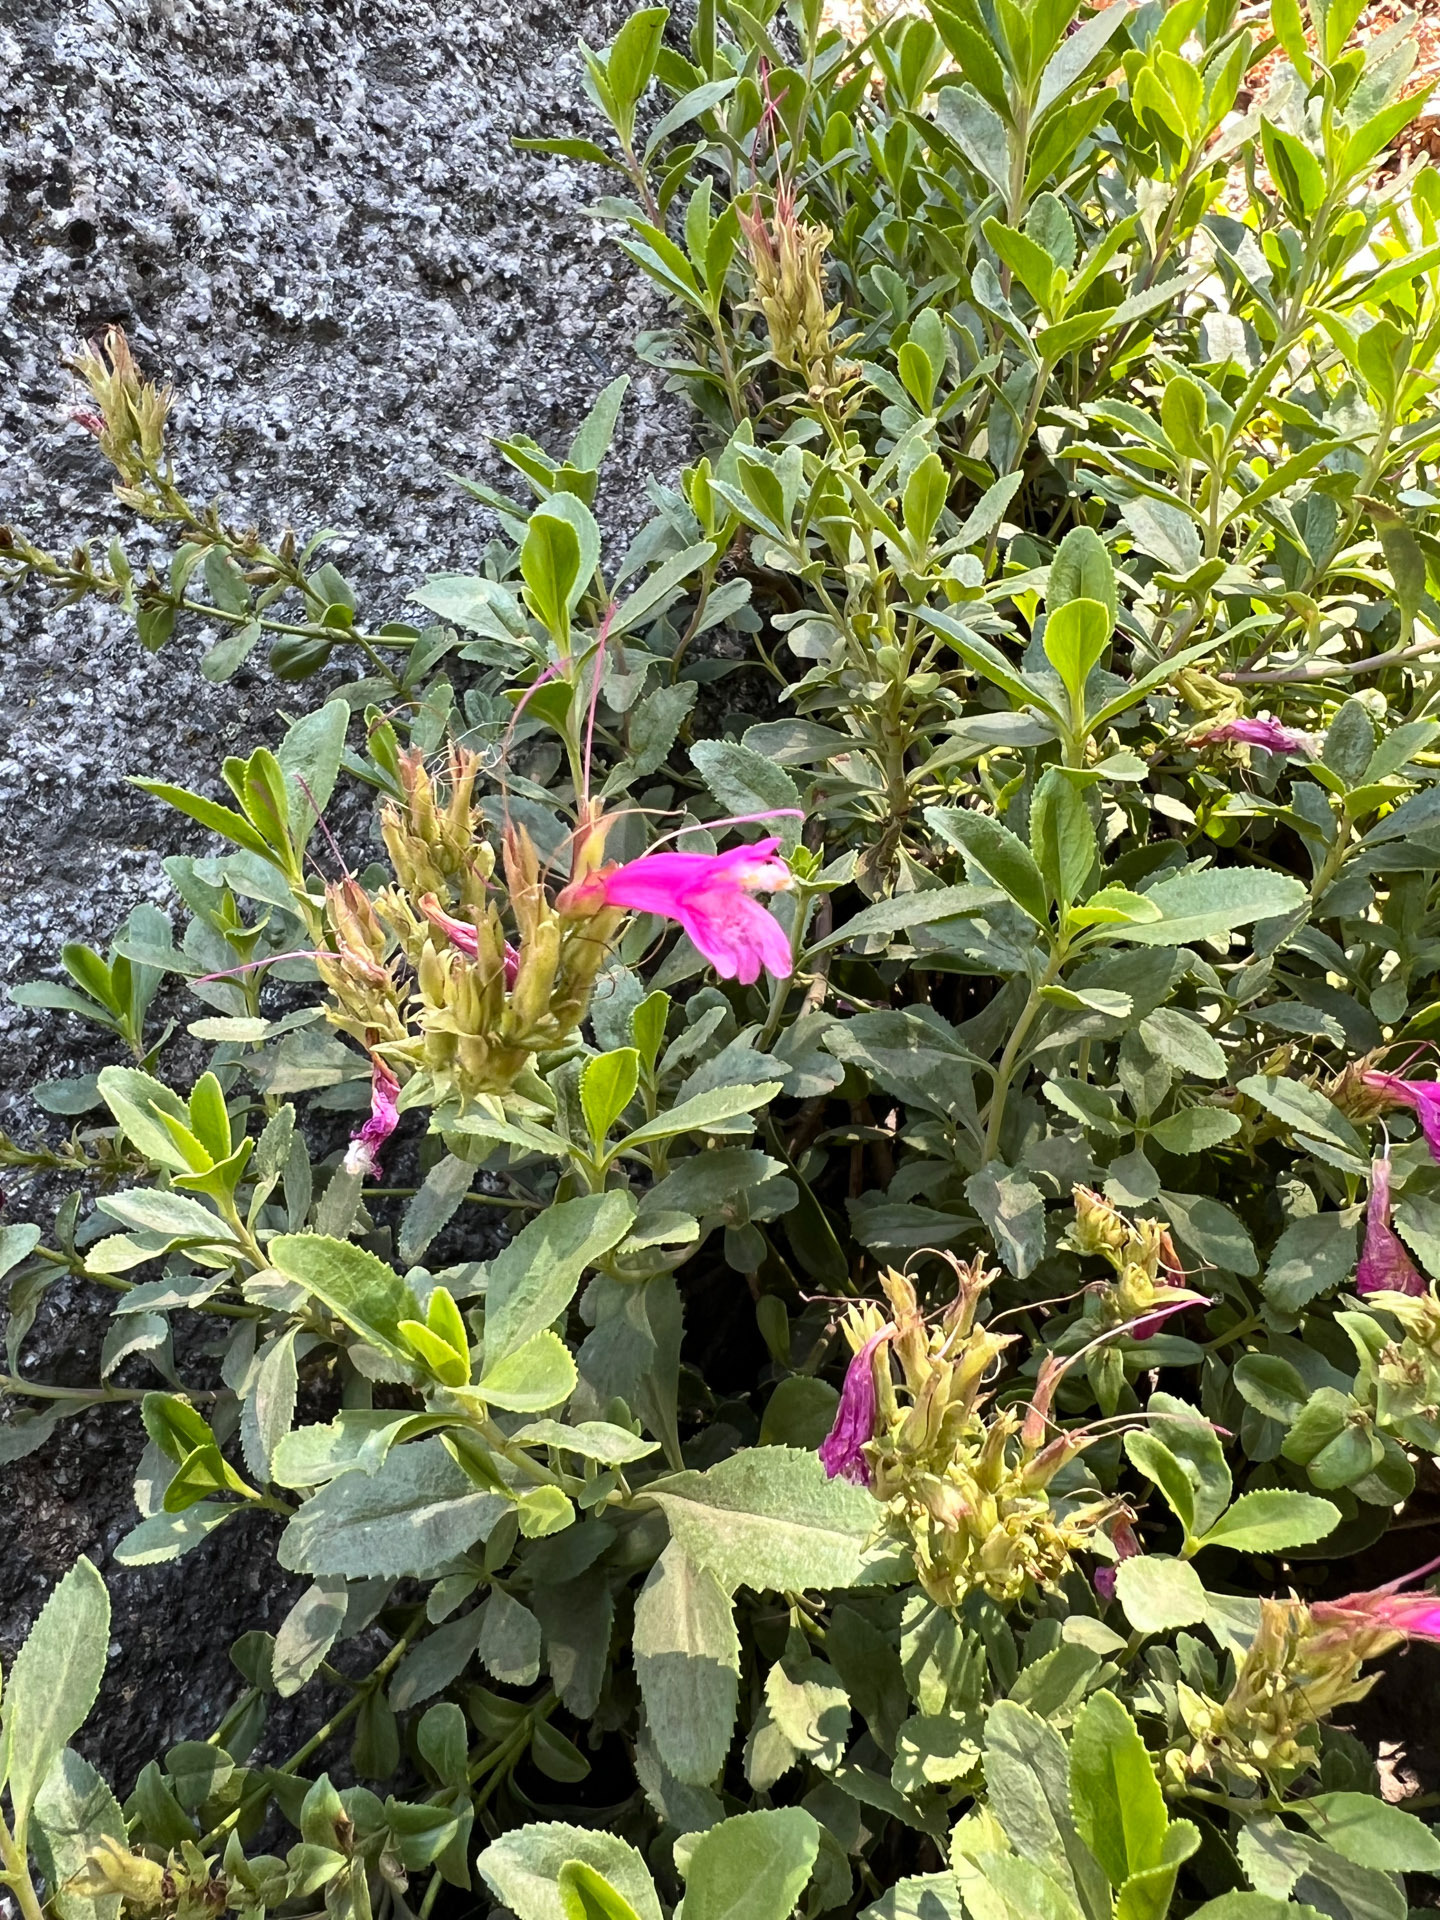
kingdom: Plantae
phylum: Tracheophyta
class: Magnoliopsida
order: Lamiales
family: Plantaginaceae
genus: Penstemon
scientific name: Penstemon newberryi
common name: Mountain-pride
